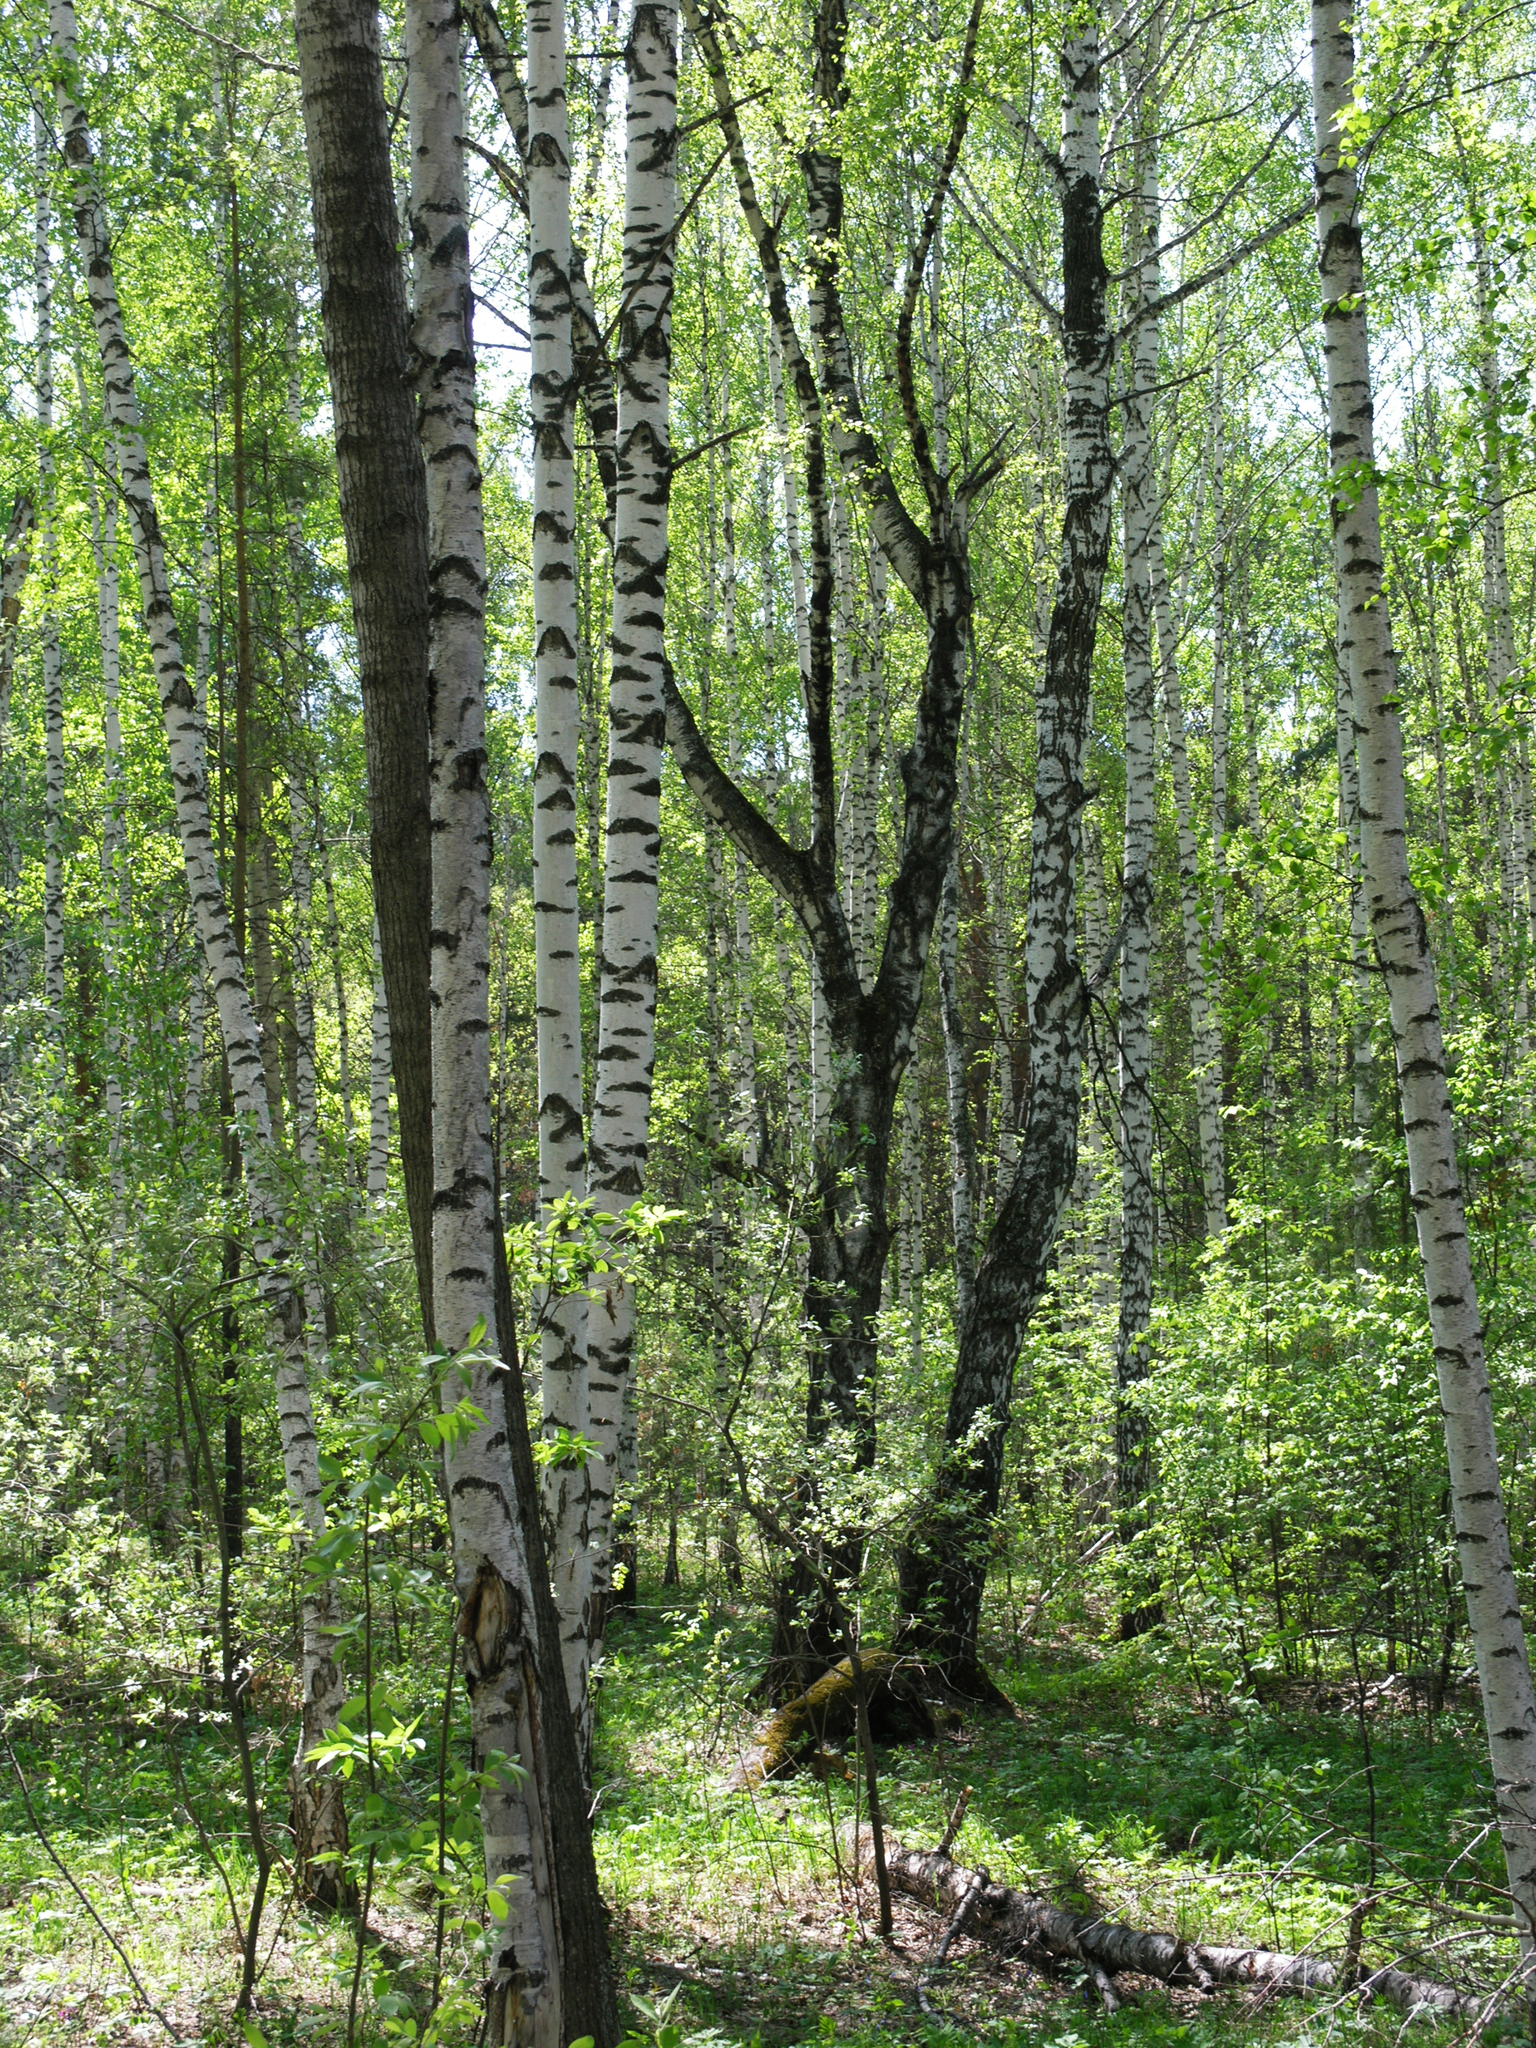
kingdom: Plantae
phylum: Tracheophyta
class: Magnoliopsida
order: Fagales
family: Betulaceae
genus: Betula
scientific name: Betula pendula
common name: Silver birch
